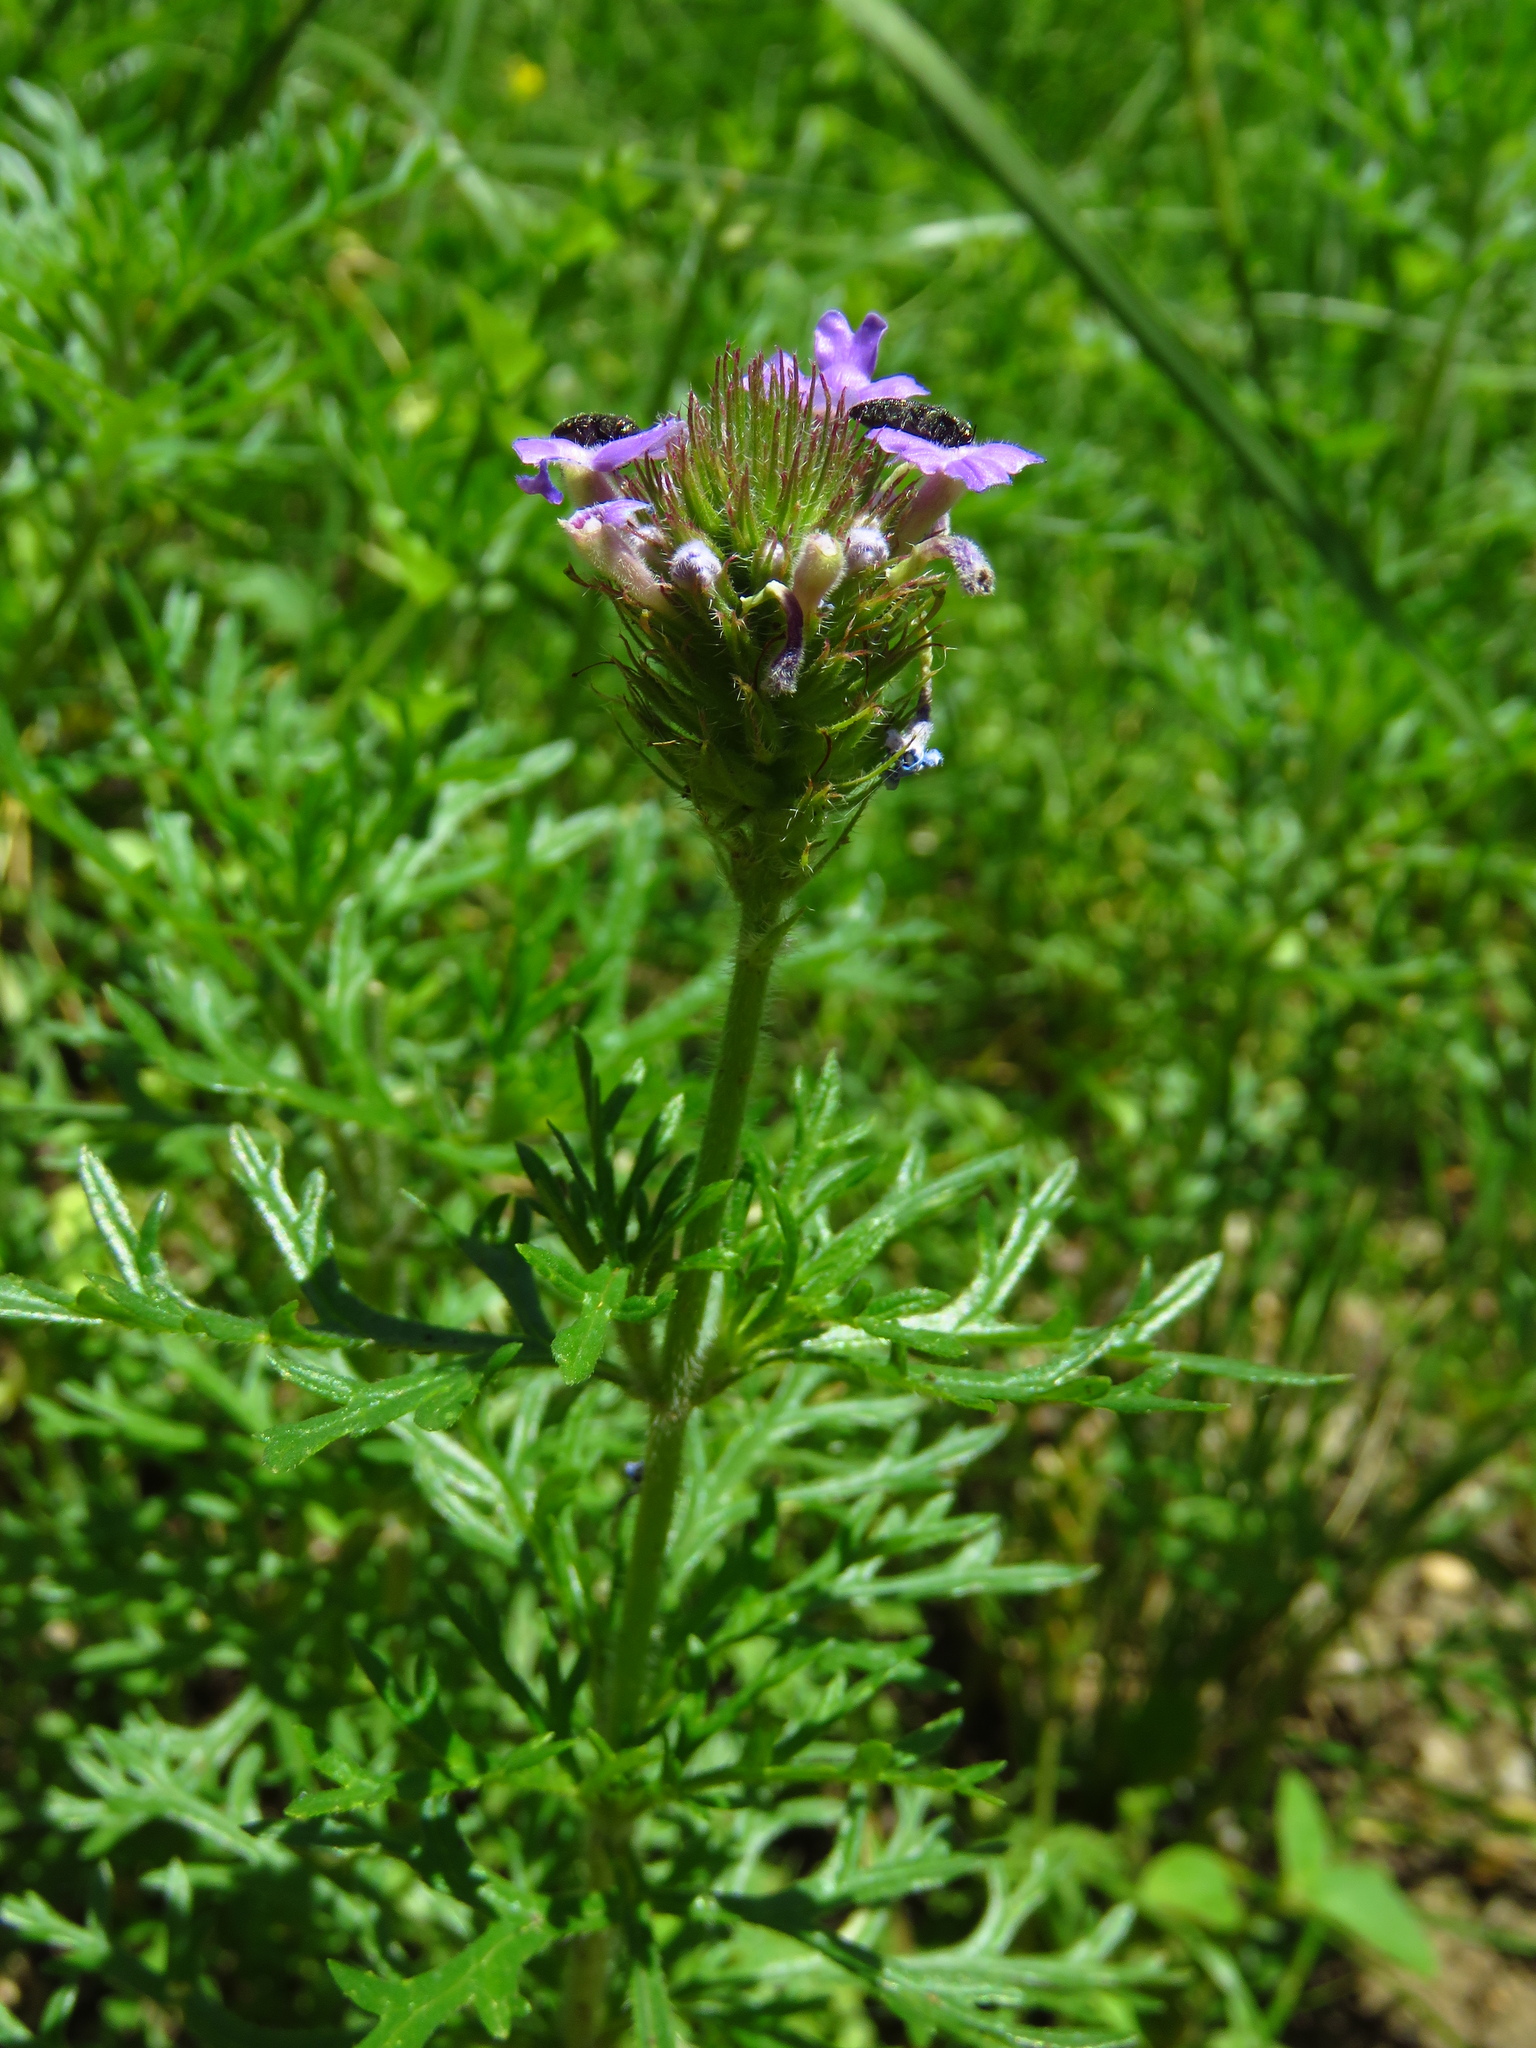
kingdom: Plantae
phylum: Tracheophyta
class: Magnoliopsida
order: Lamiales
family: Verbenaceae
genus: Verbena
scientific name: Verbena bipinnatifida
